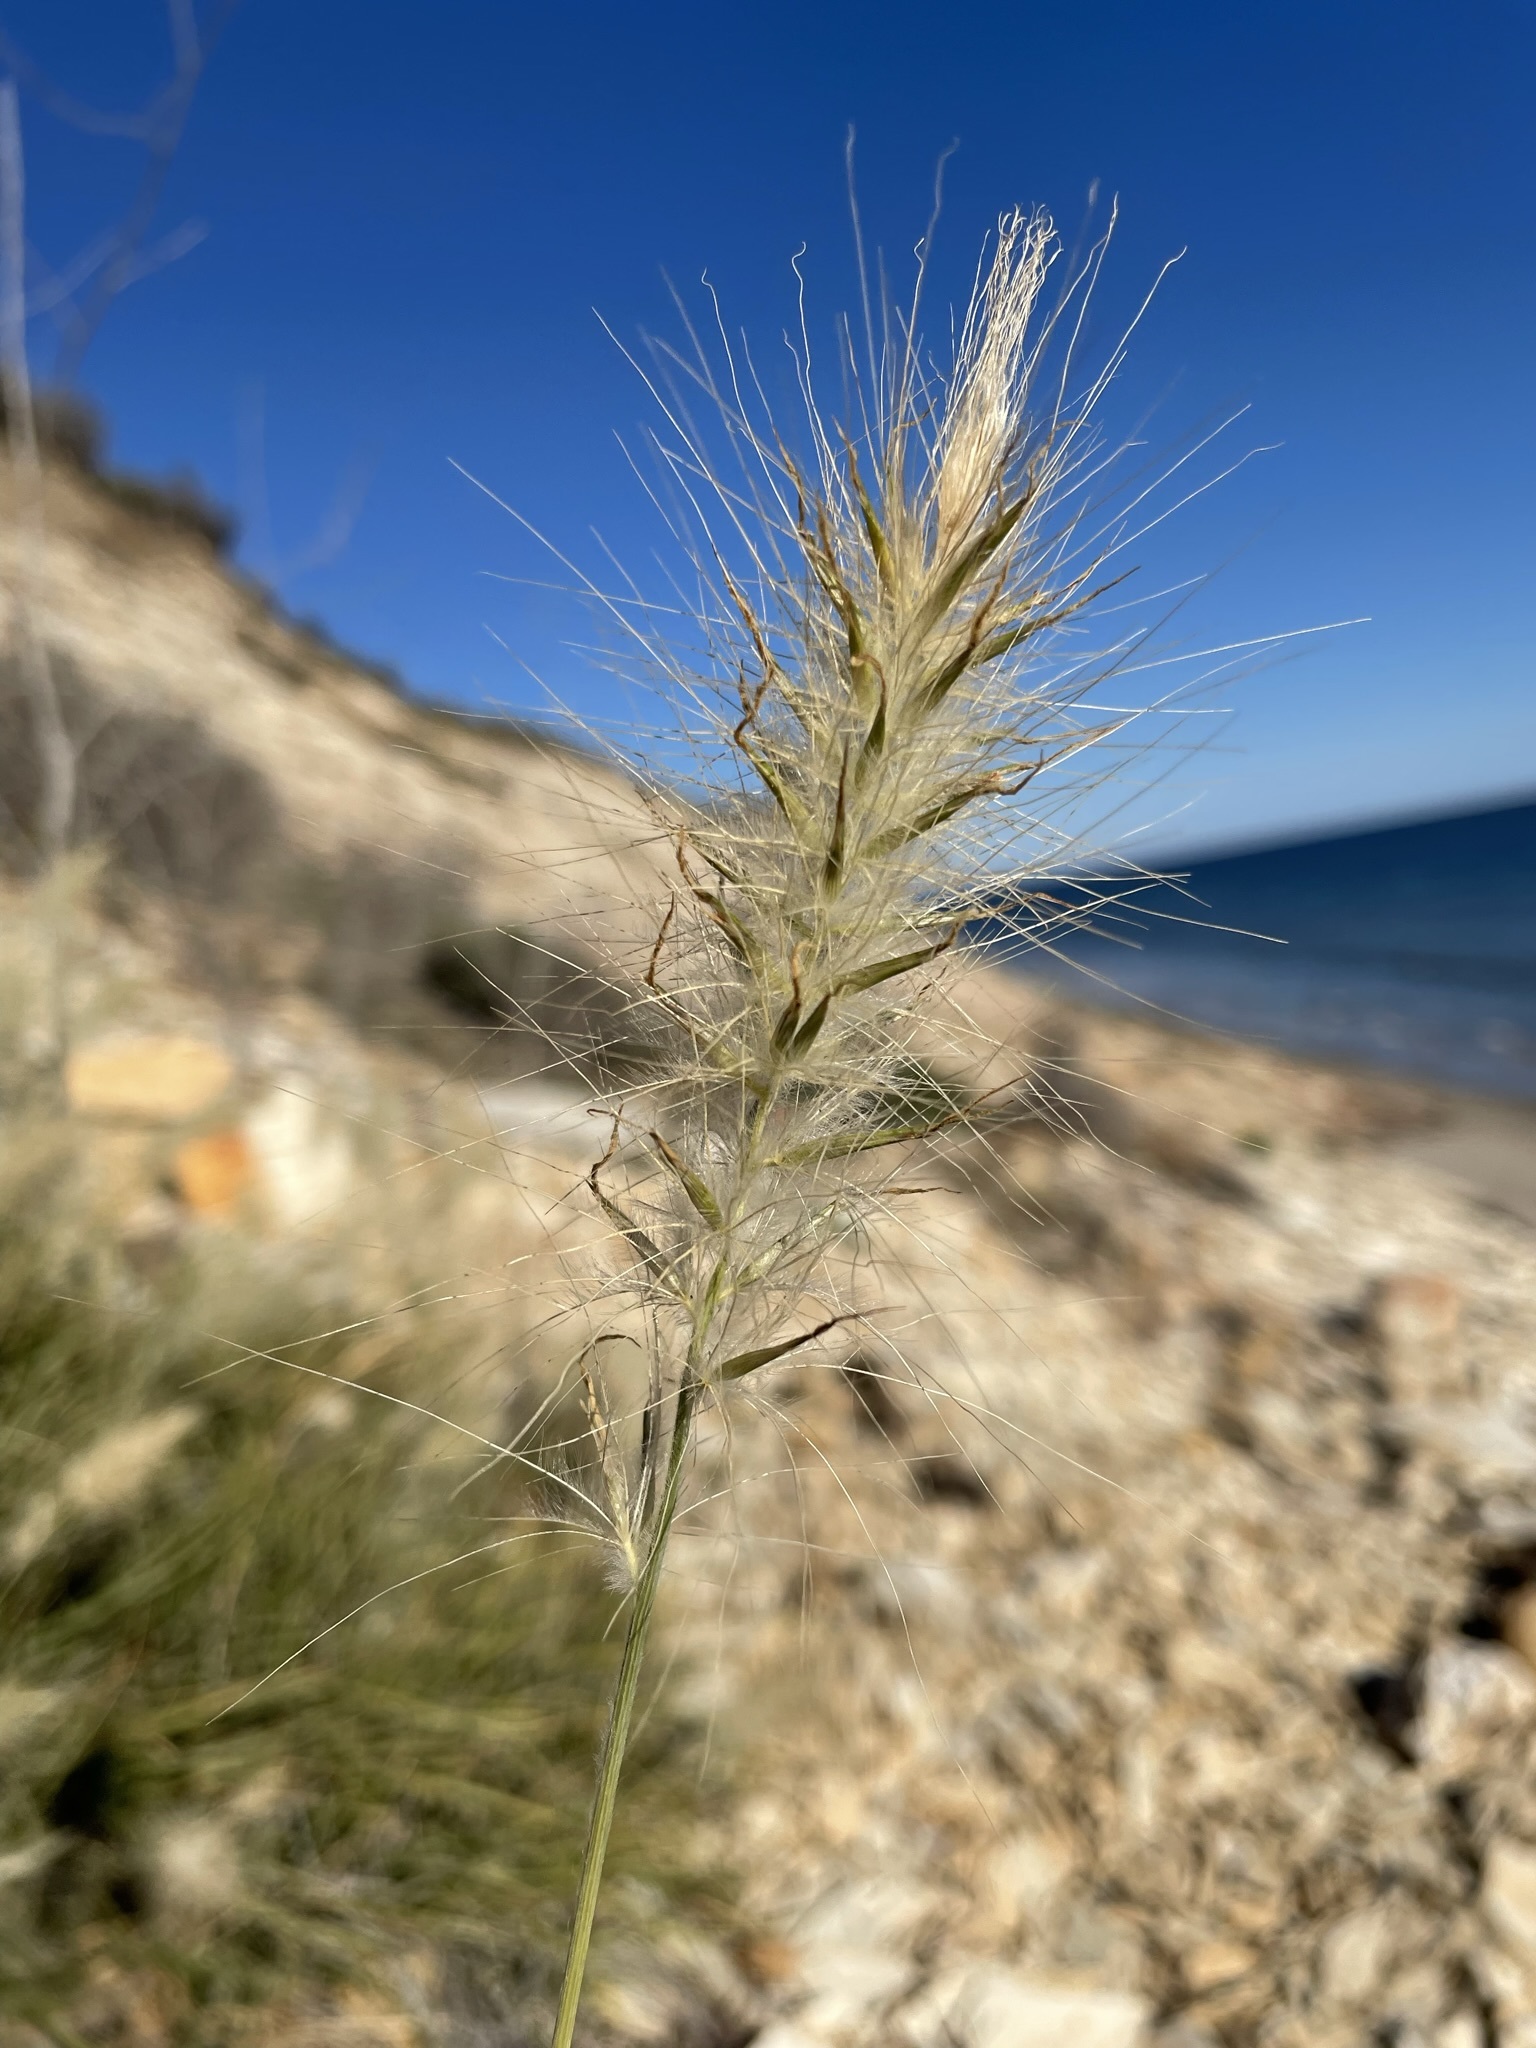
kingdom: Plantae
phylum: Tracheophyta
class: Liliopsida
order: Poales
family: Poaceae
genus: Cenchrus
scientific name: Cenchrus longisetus
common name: Feathertop
